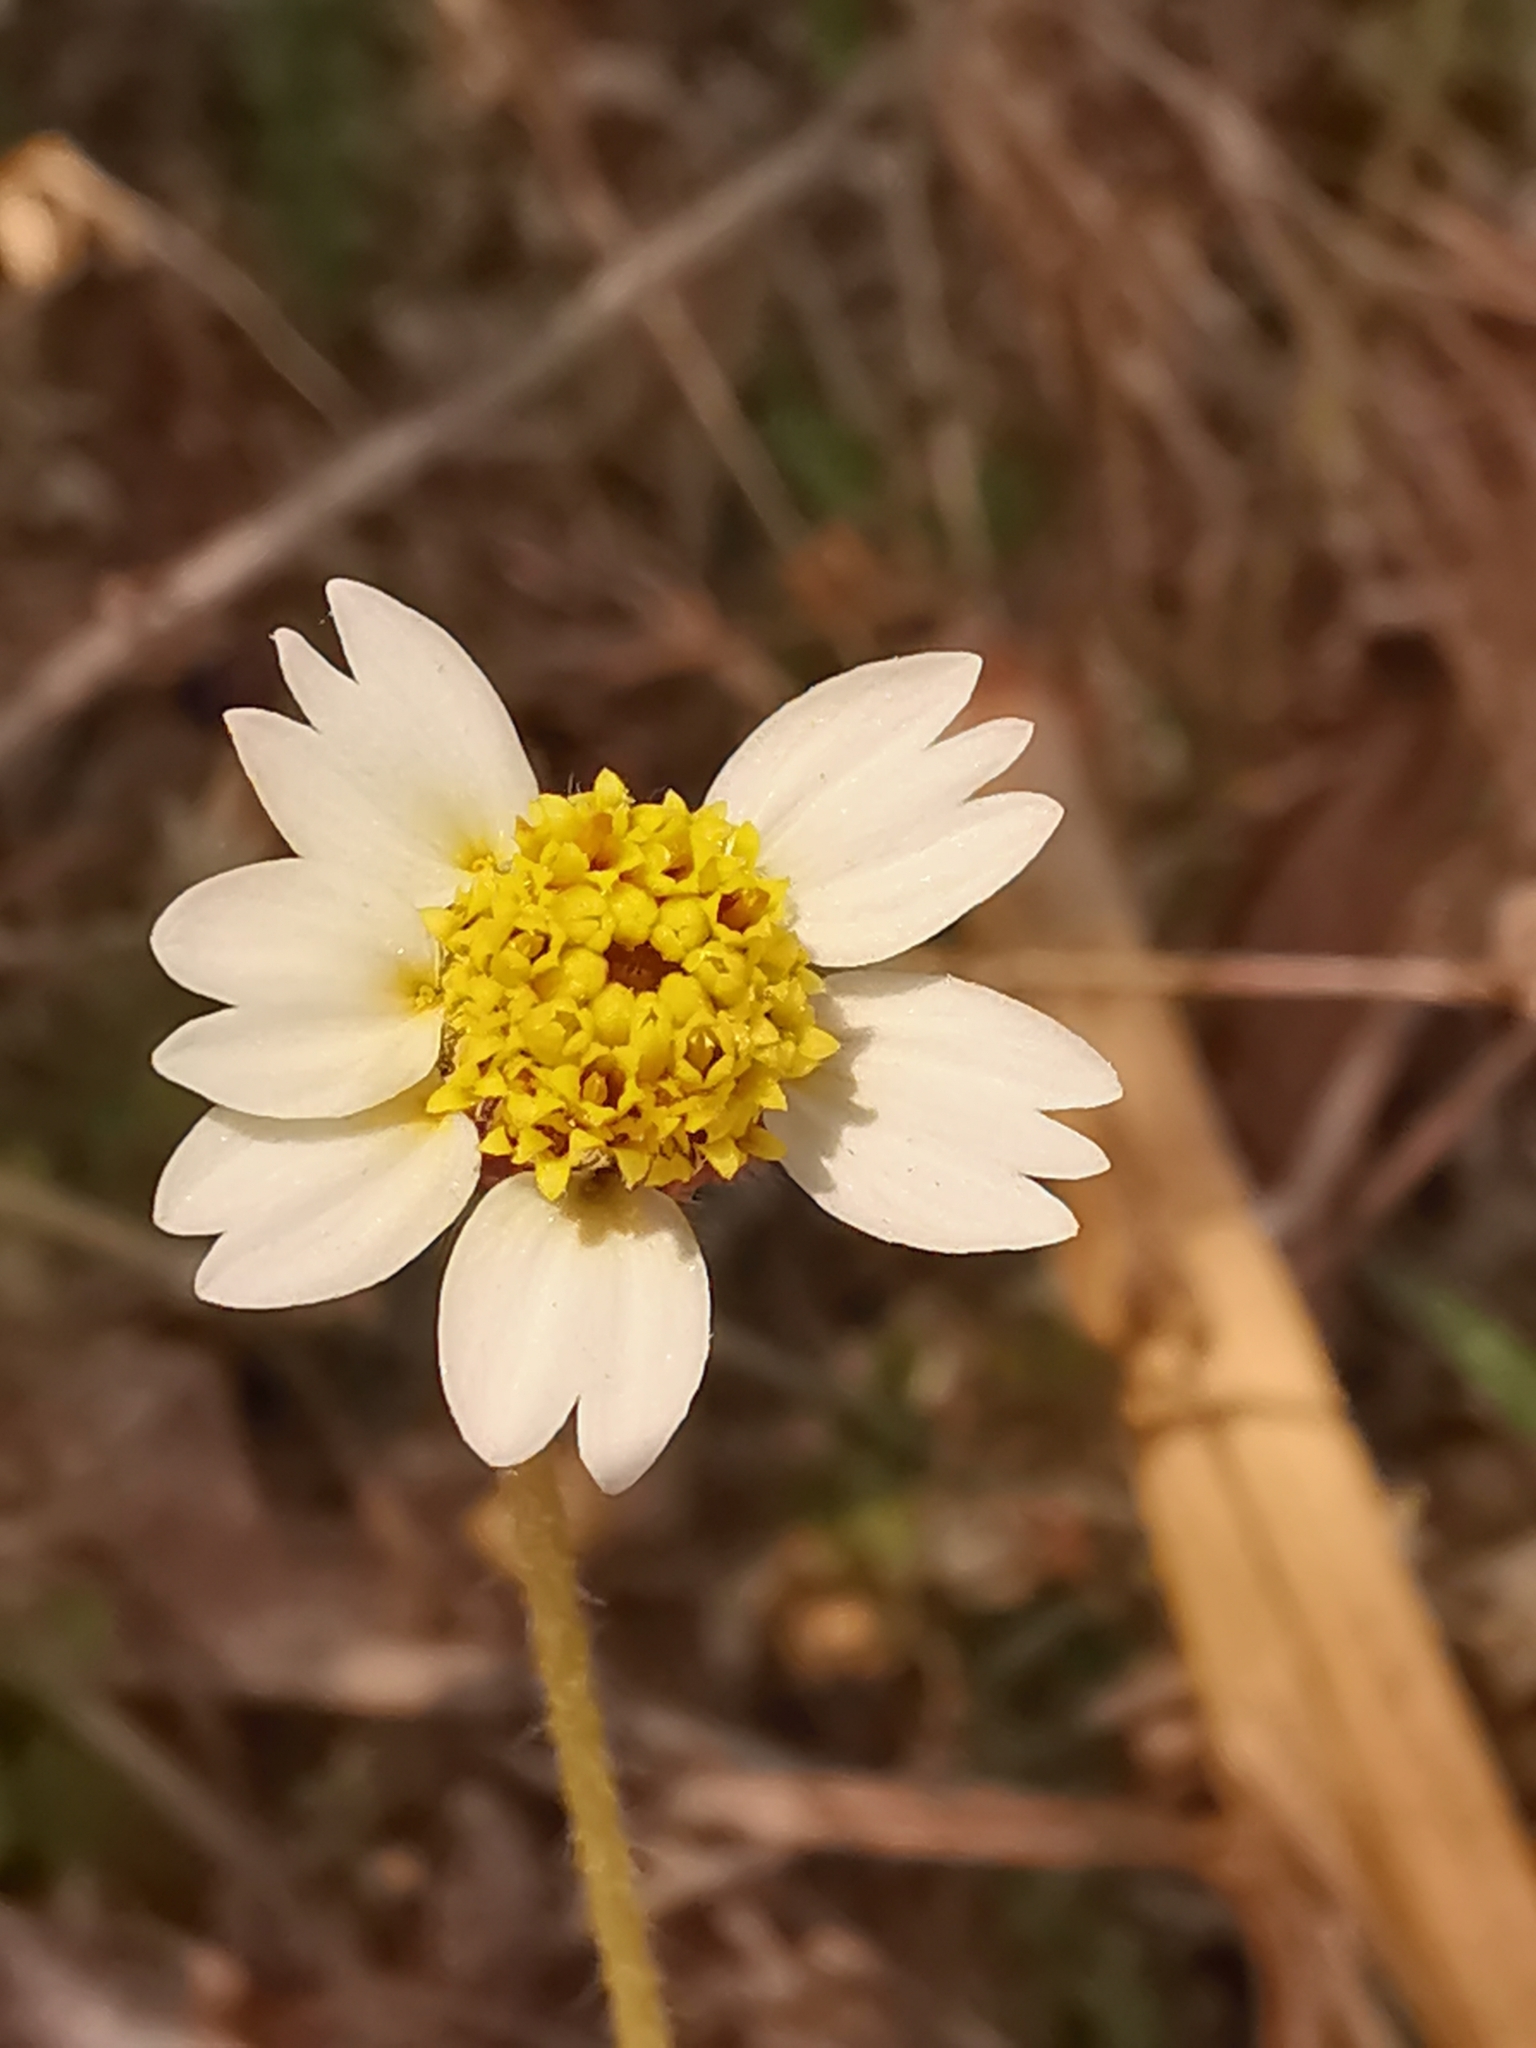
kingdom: Plantae
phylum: Tracheophyta
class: Magnoliopsida
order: Asterales
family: Asteraceae
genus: Tridax
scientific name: Tridax procumbens
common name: Coatbuttons
